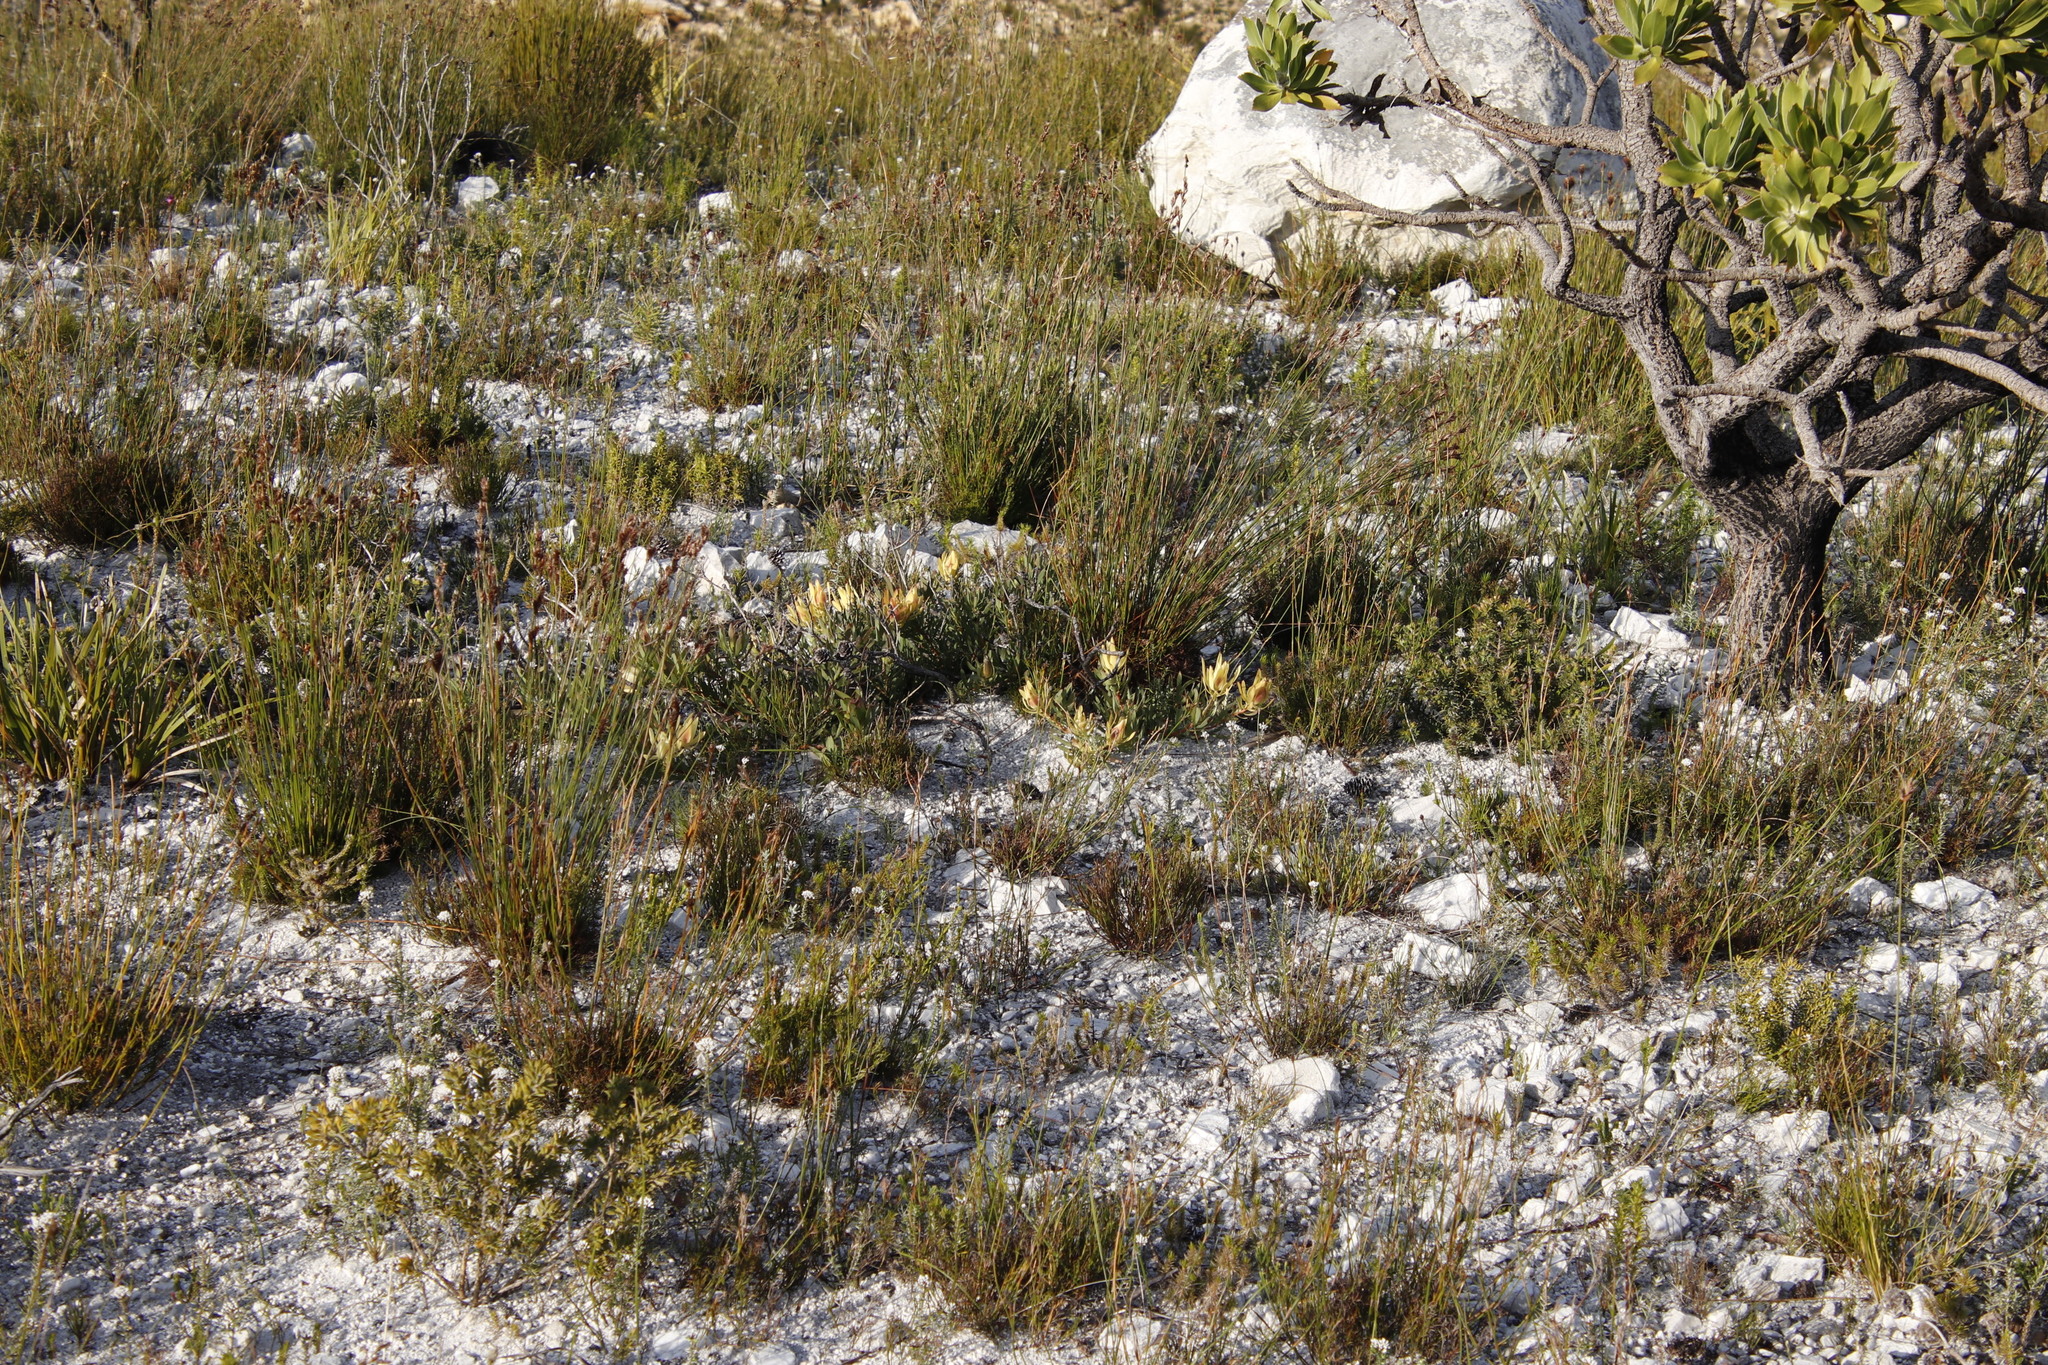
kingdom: Plantae
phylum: Tracheophyta
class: Magnoliopsida
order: Proteales
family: Proteaceae
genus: Leucadendron
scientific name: Leucadendron salignum
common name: Common sunshine conebush
